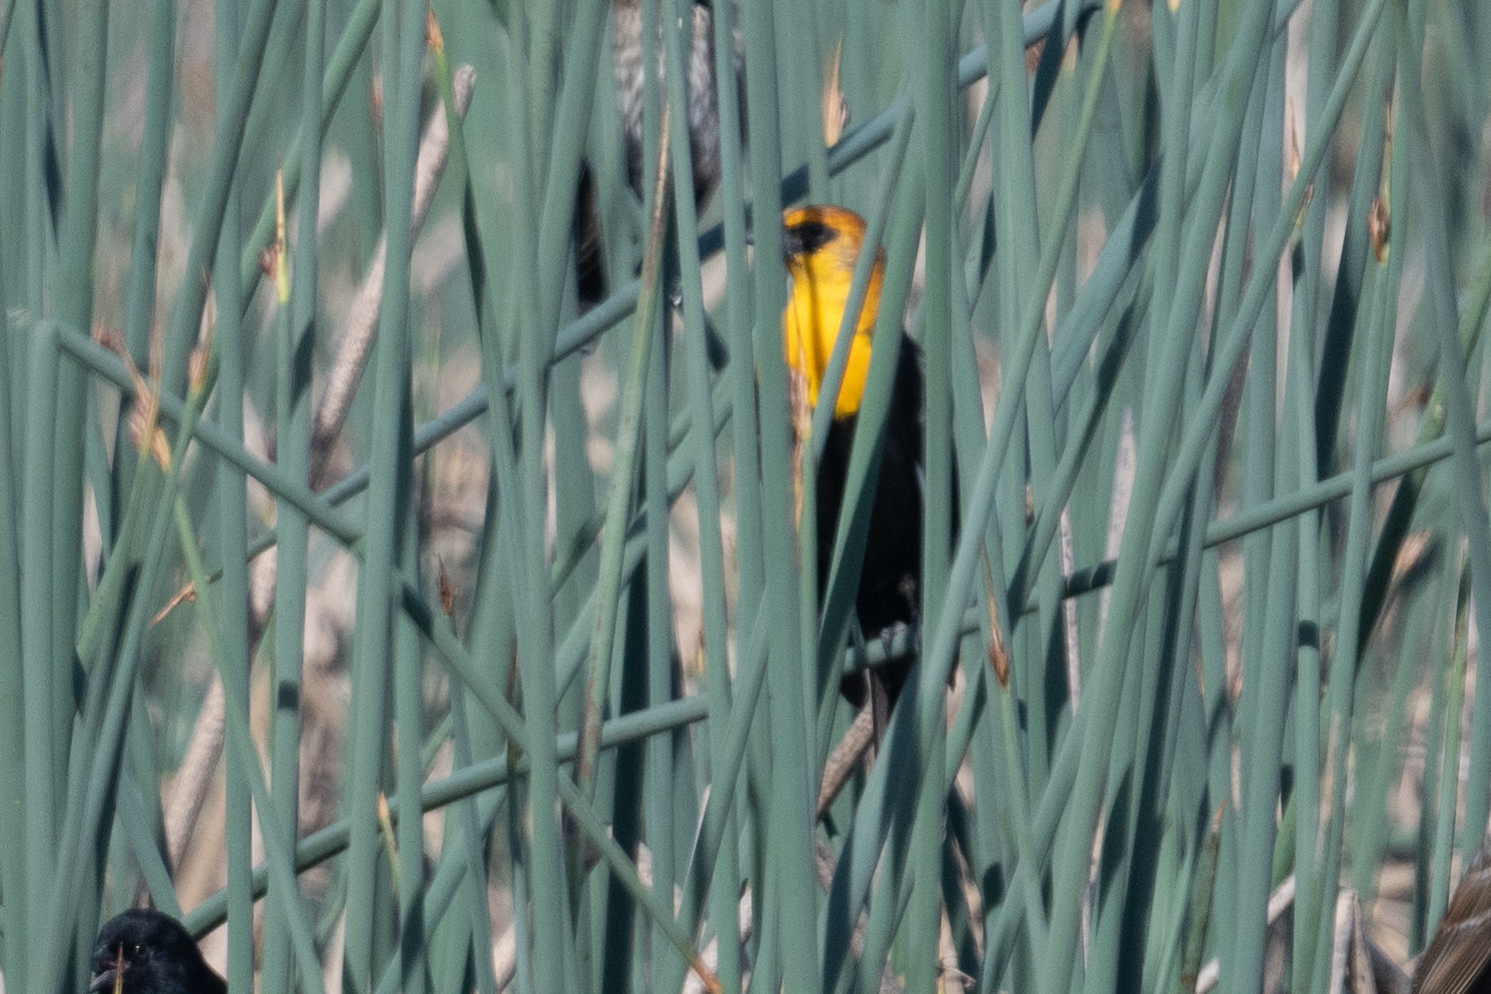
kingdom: Animalia
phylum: Chordata
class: Aves
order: Passeriformes
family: Icteridae
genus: Xanthocephalus
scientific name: Xanthocephalus xanthocephalus
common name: Yellow-headed blackbird
